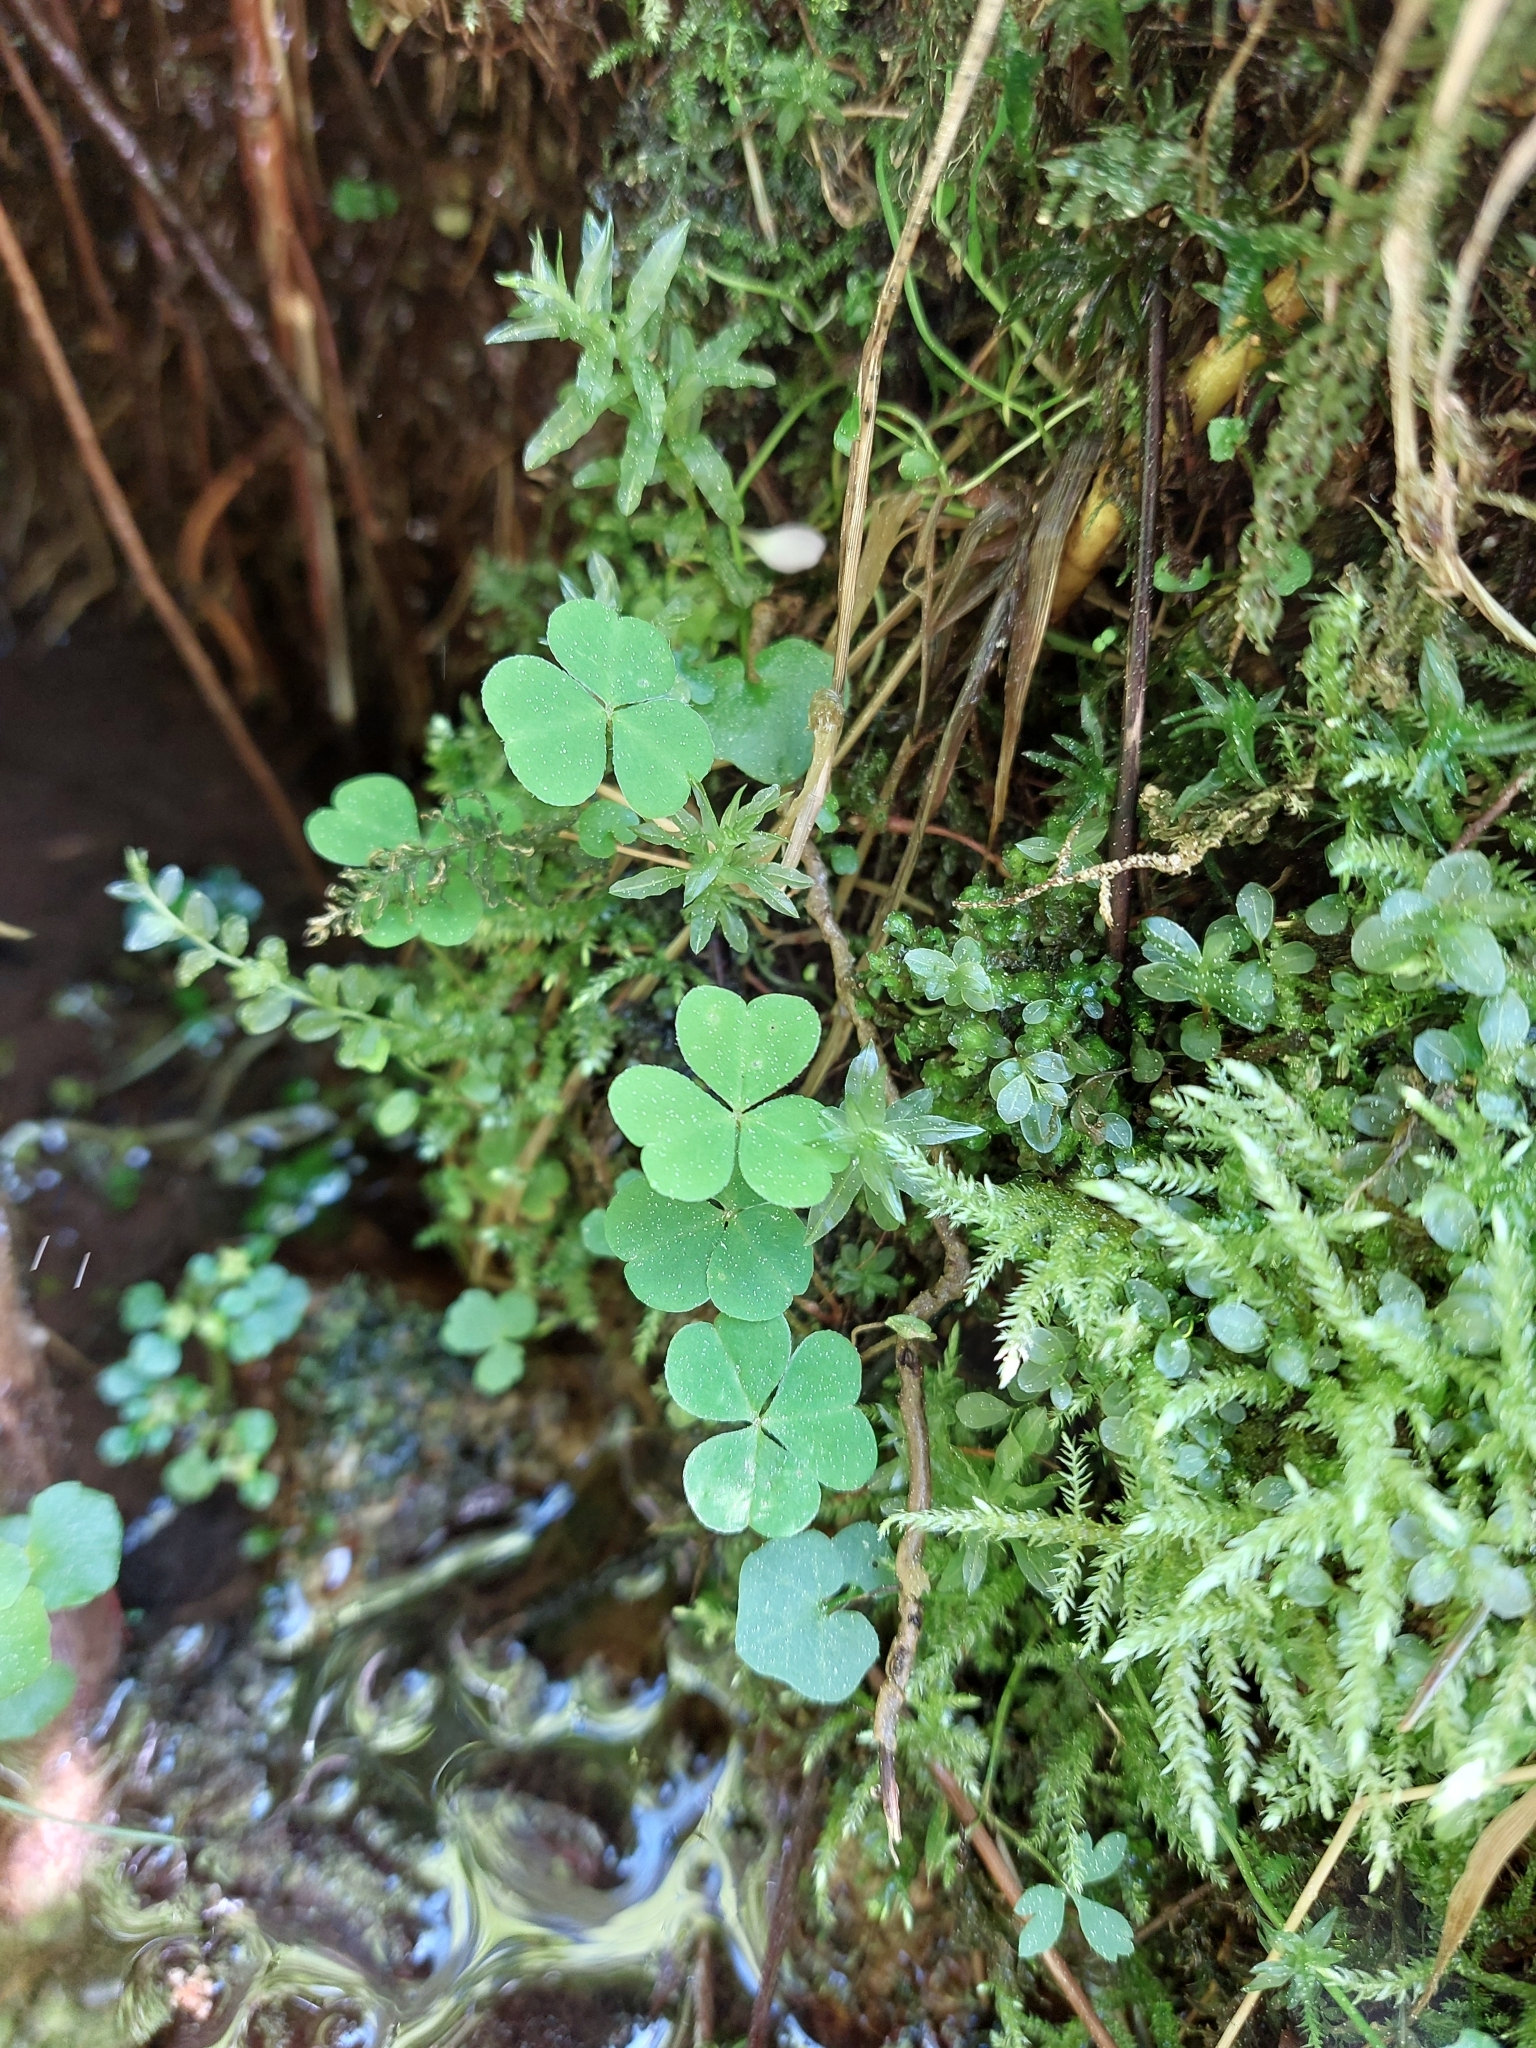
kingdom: Plantae
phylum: Tracheophyta
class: Magnoliopsida
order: Oxalidales
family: Oxalidaceae
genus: Oxalis
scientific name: Oxalis acetosella
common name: Wood-sorrel
